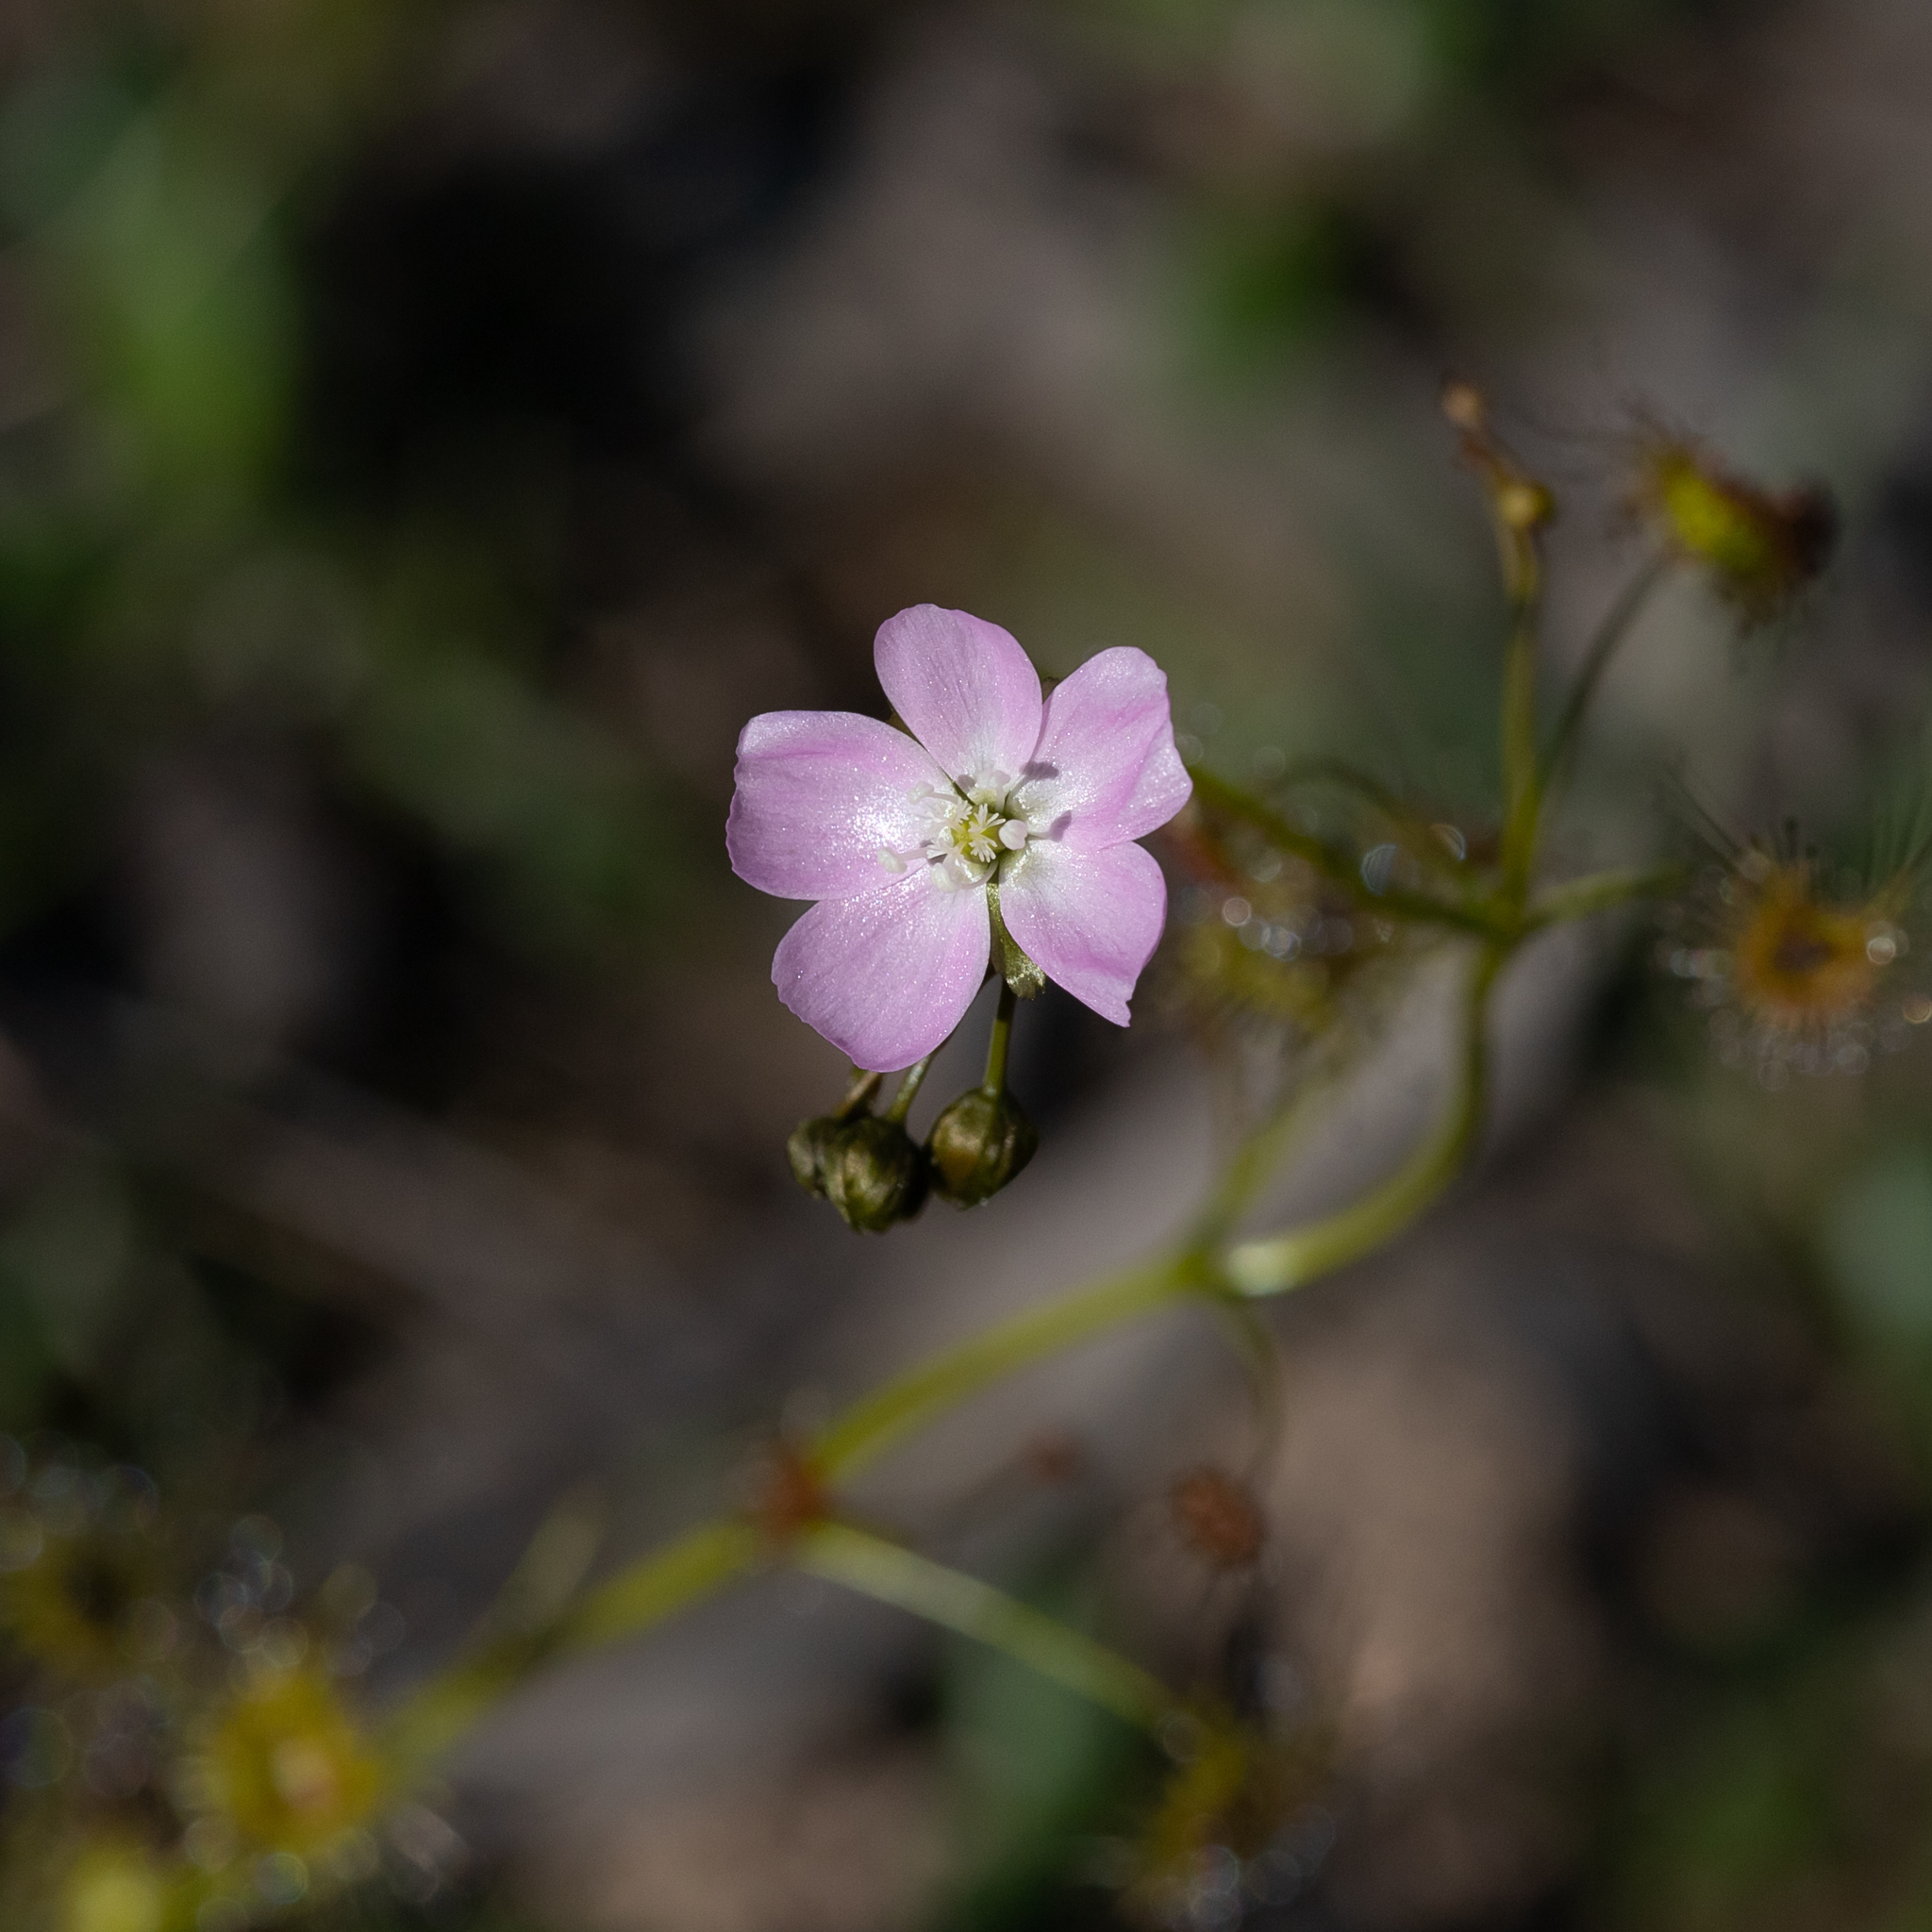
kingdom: Plantae
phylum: Tracheophyta
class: Magnoliopsida
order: Caryophyllales
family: Droseraceae
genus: Drosera
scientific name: Drosera peltata
